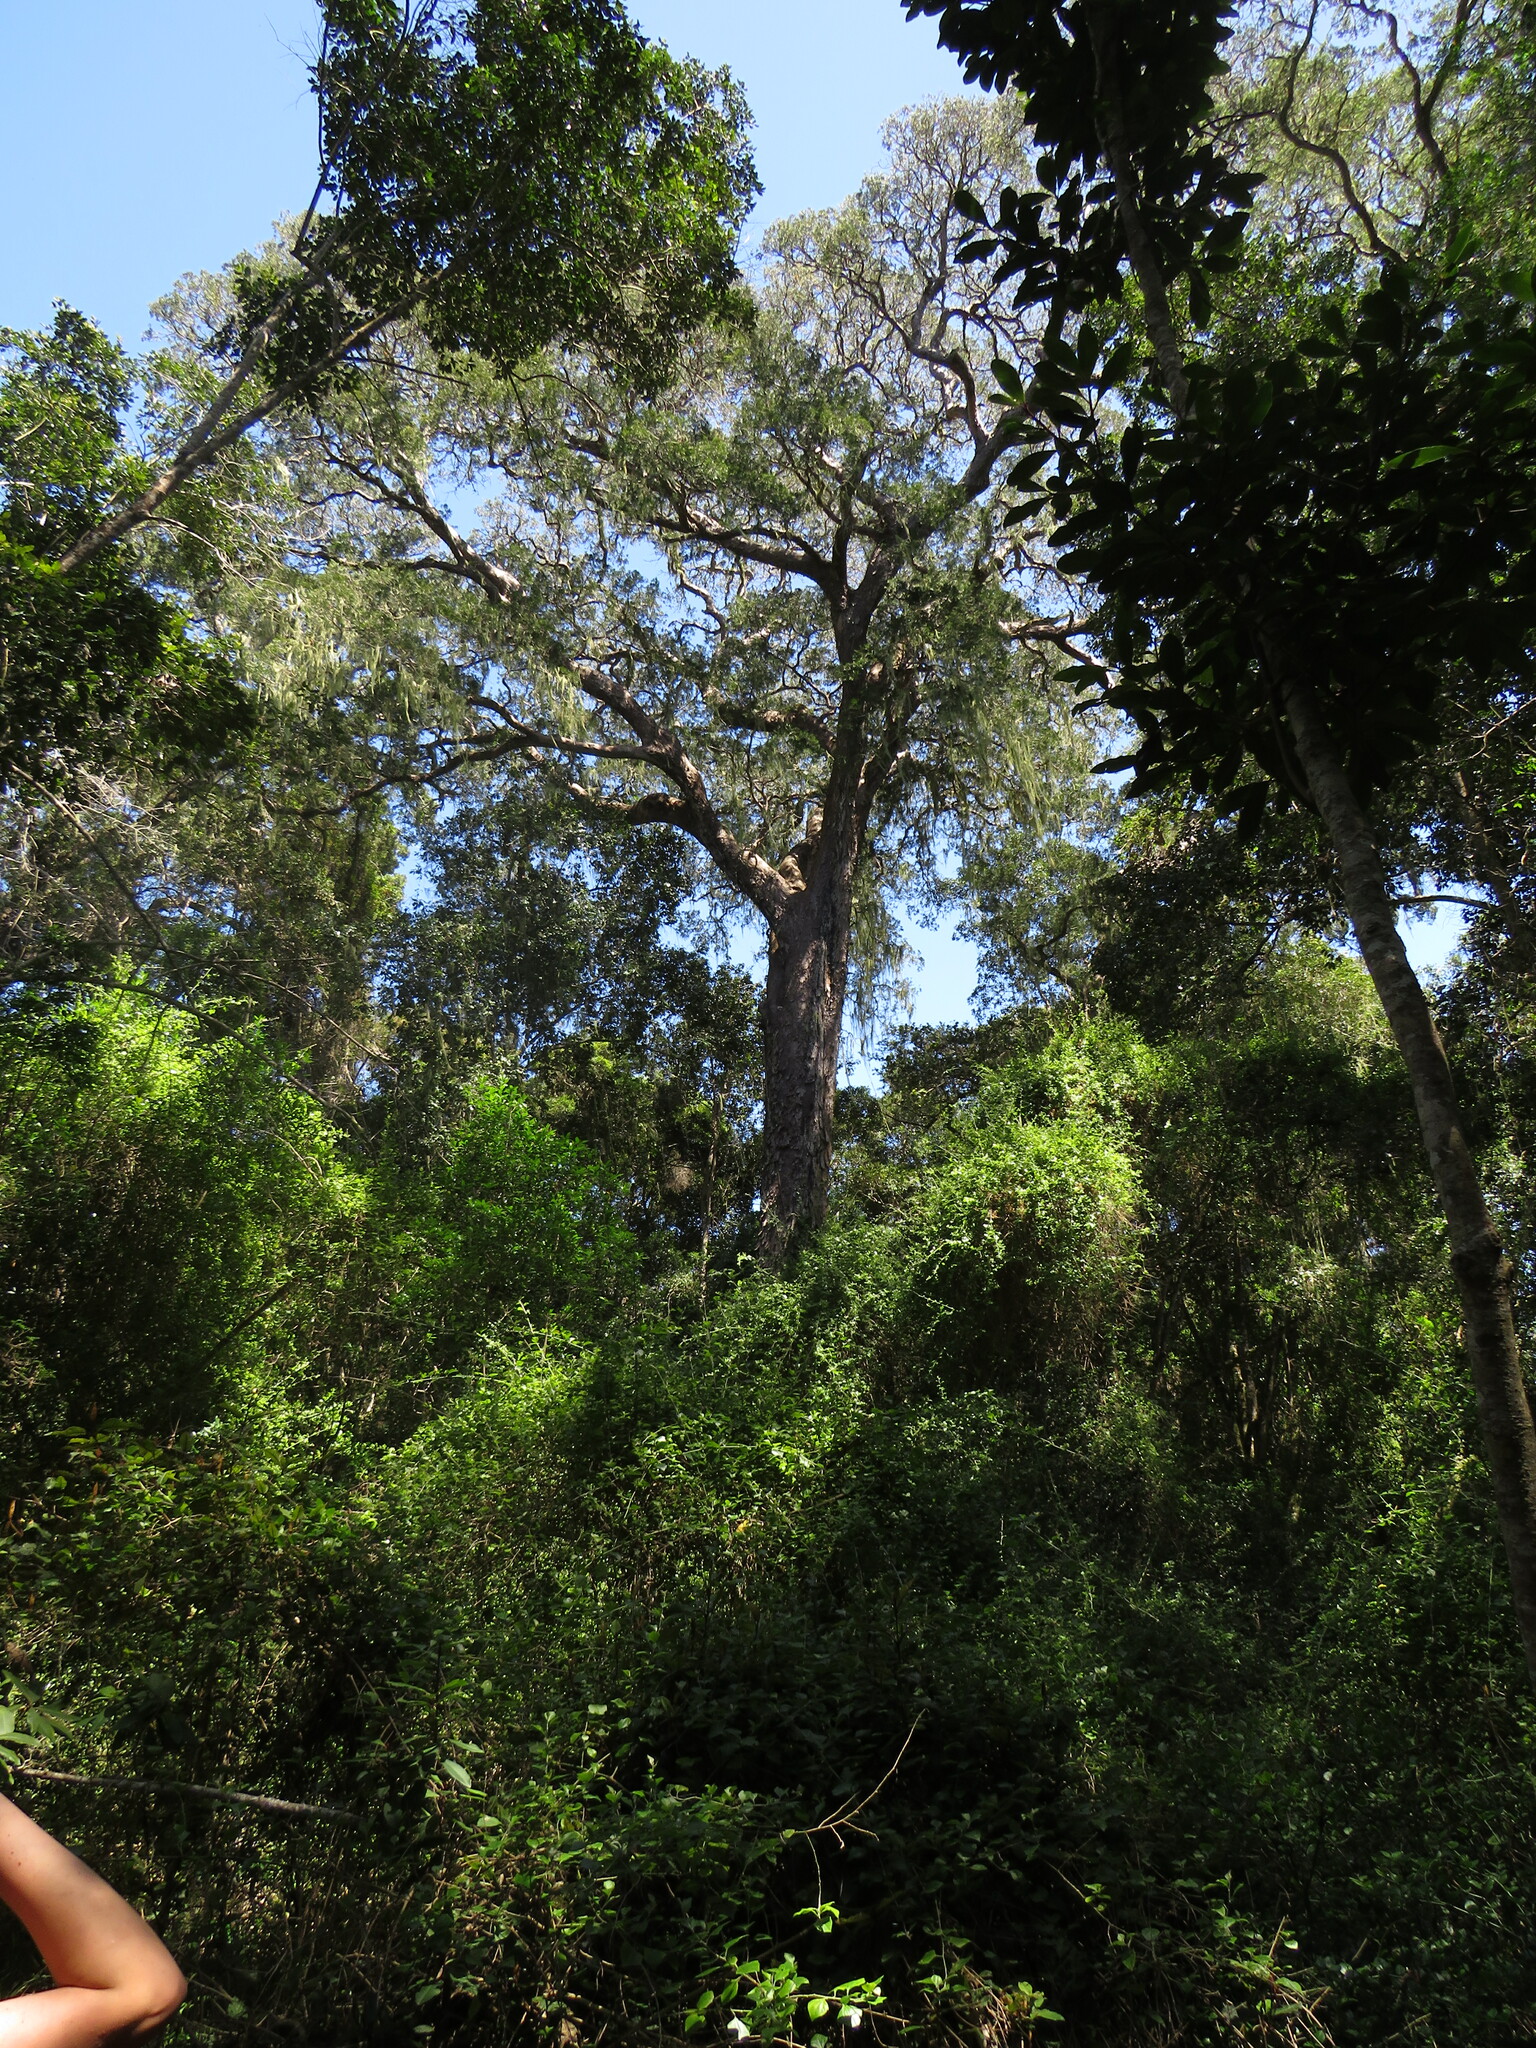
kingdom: Plantae
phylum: Tracheophyta
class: Magnoliopsida
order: Piperales
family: Piperaceae
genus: Peperomia
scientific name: Peperomia tetraphylla
